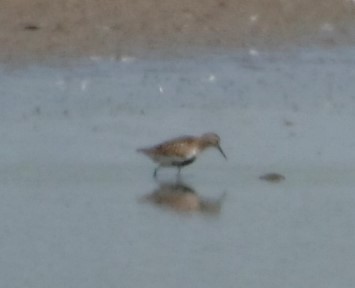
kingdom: Animalia
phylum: Chordata
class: Aves
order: Charadriiformes
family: Scolopacidae
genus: Calidris
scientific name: Calidris alpina
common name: Dunlin
